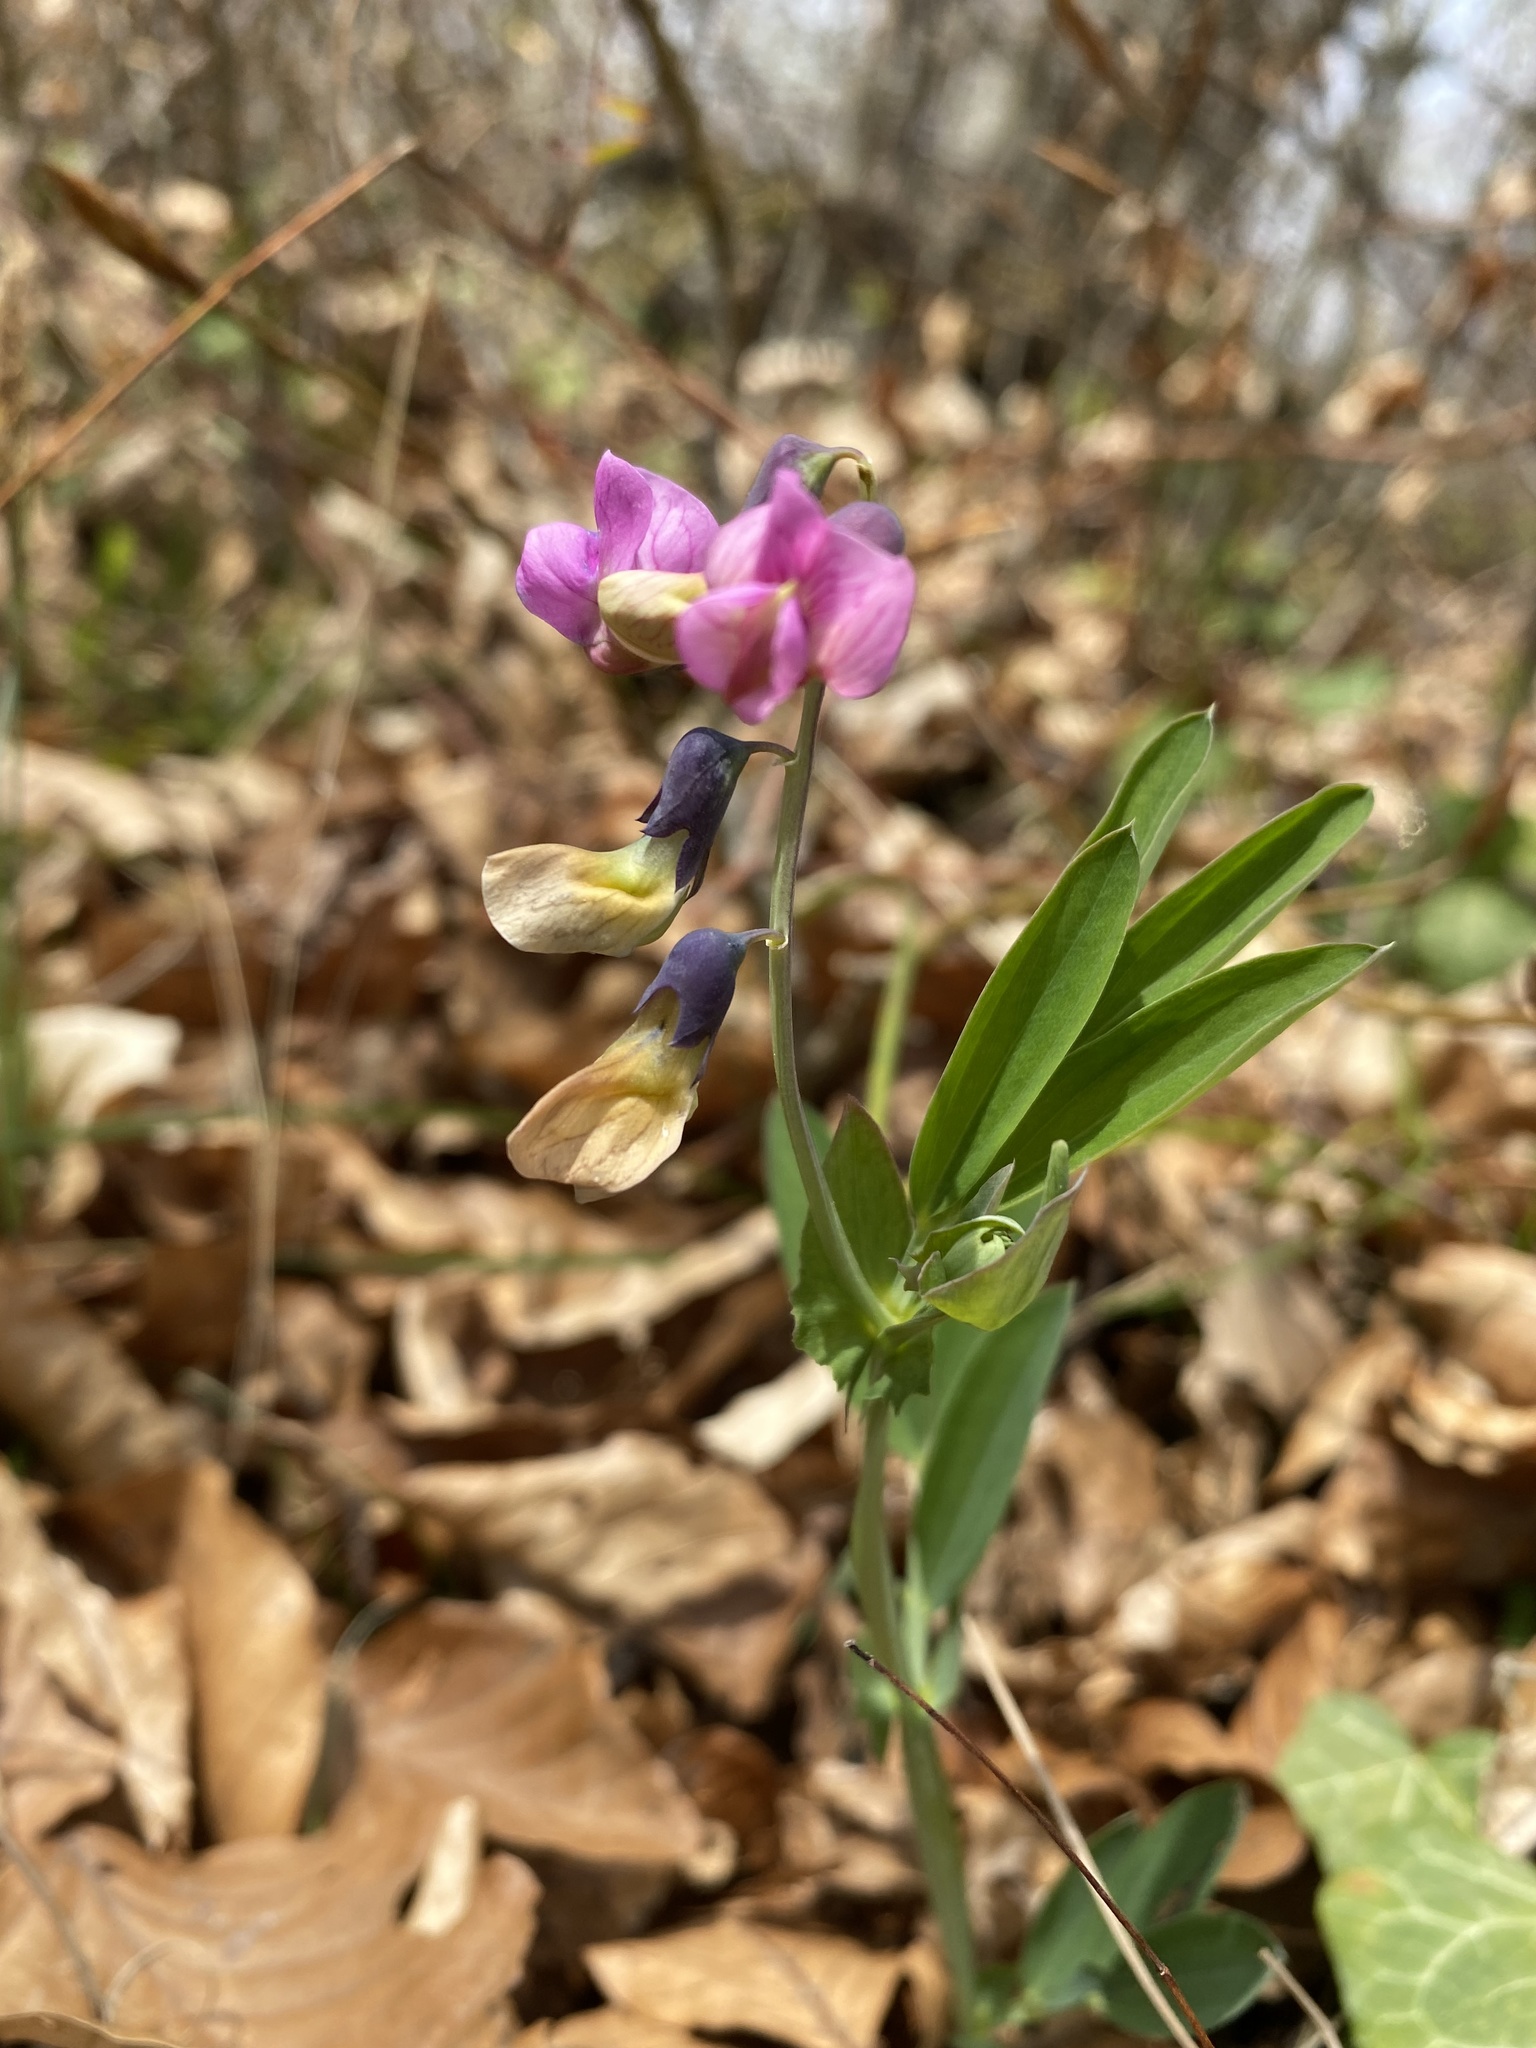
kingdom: Plantae
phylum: Tracheophyta
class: Magnoliopsida
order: Fabales
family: Fabaceae
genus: Lathyrus
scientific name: Lathyrus linifolius
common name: Bitter-vetch
